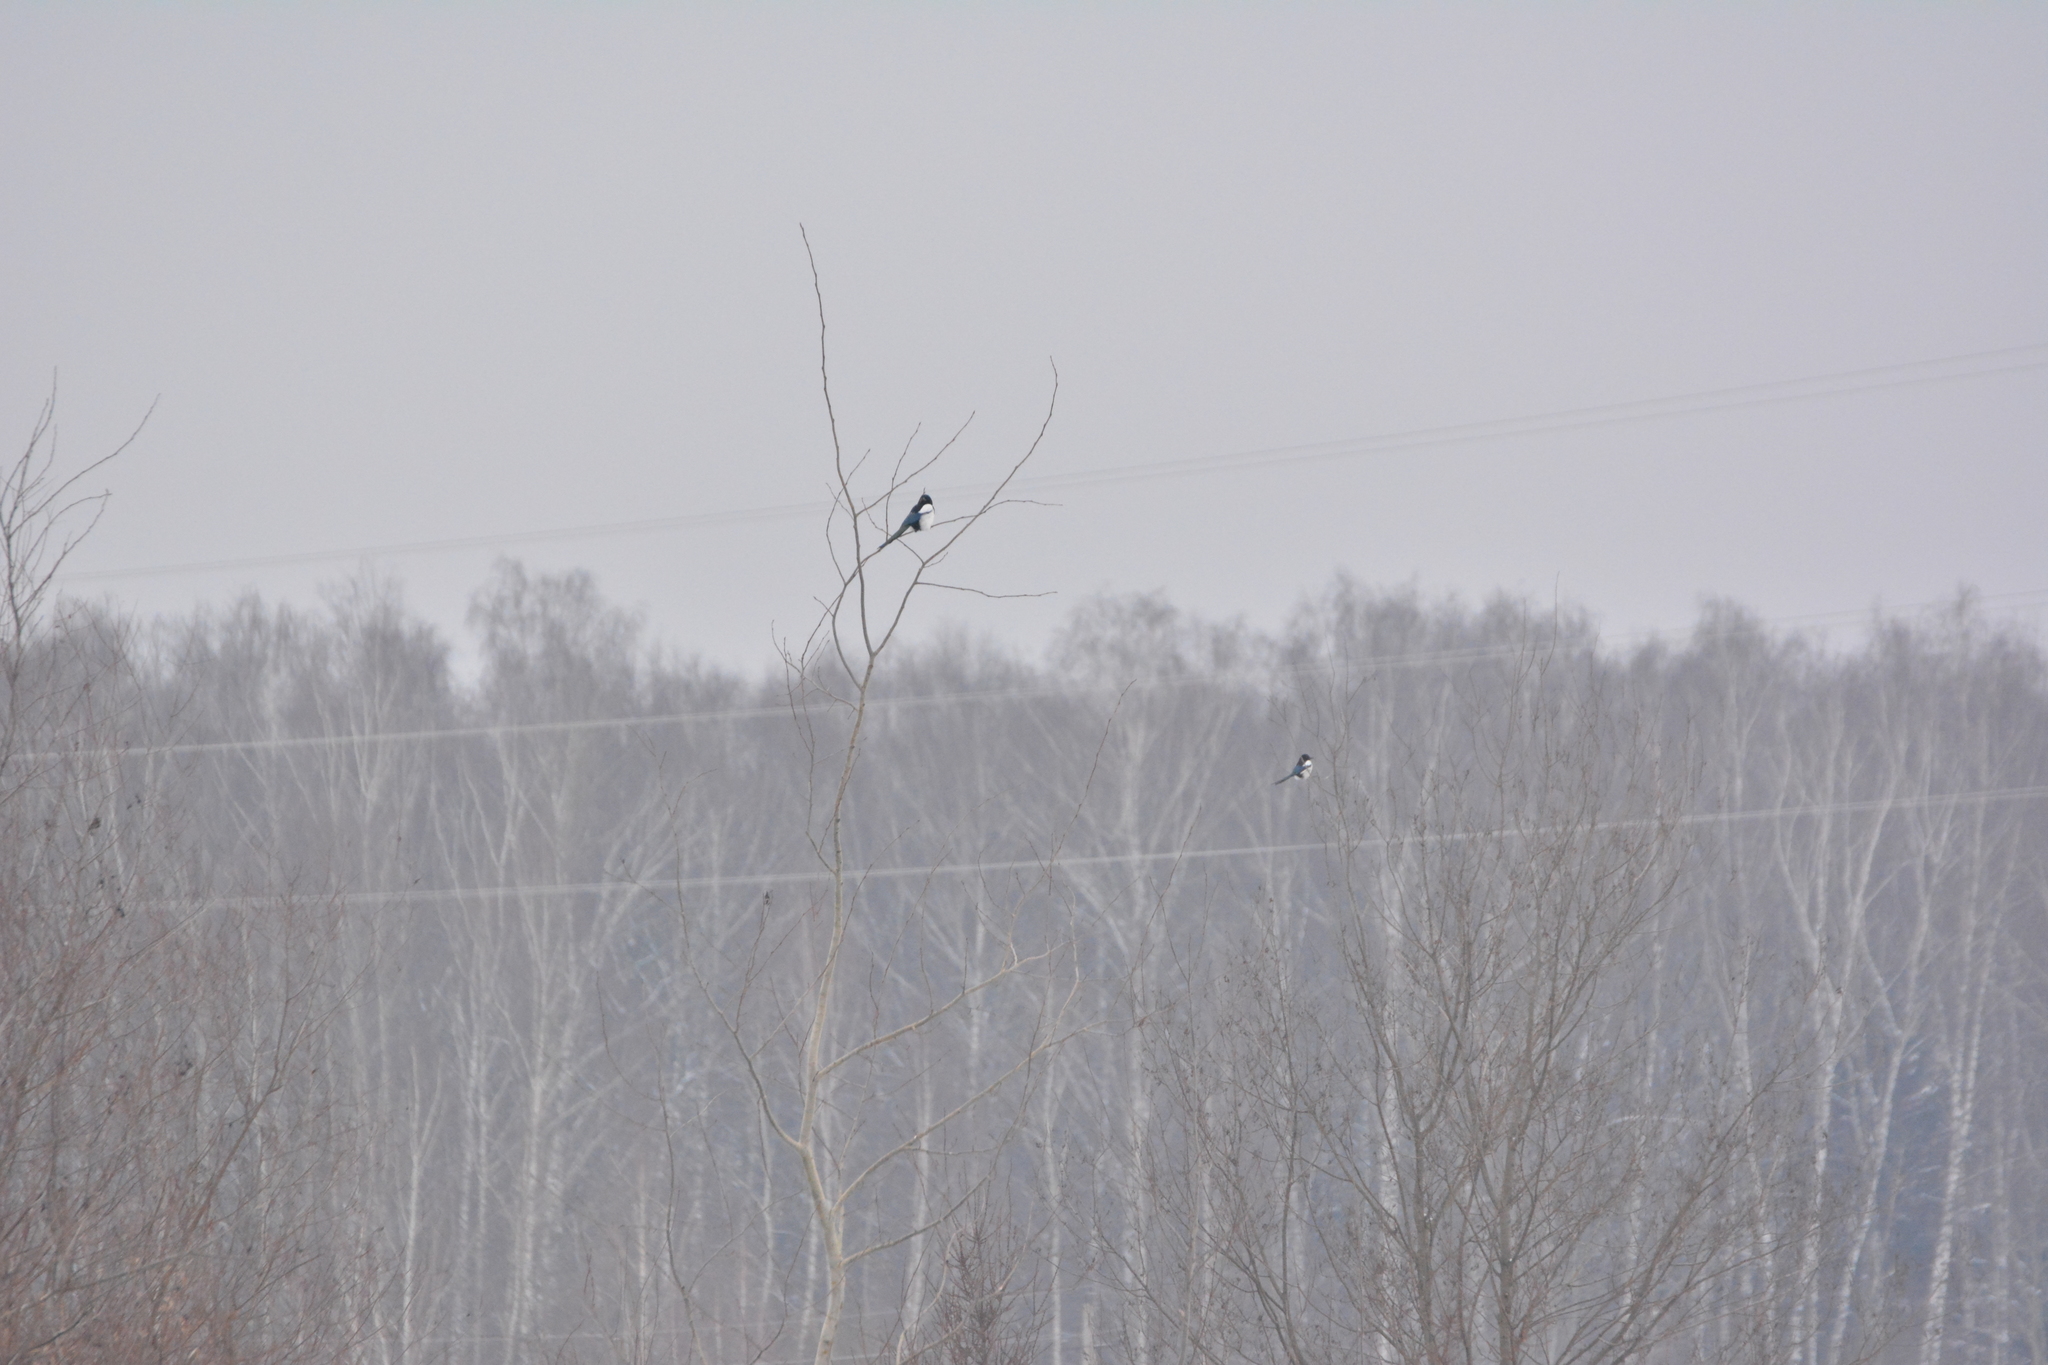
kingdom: Animalia
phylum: Chordata
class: Aves
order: Passeriformes
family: Corvidae
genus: Pica
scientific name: Pica pica
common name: Eurasian magpie
